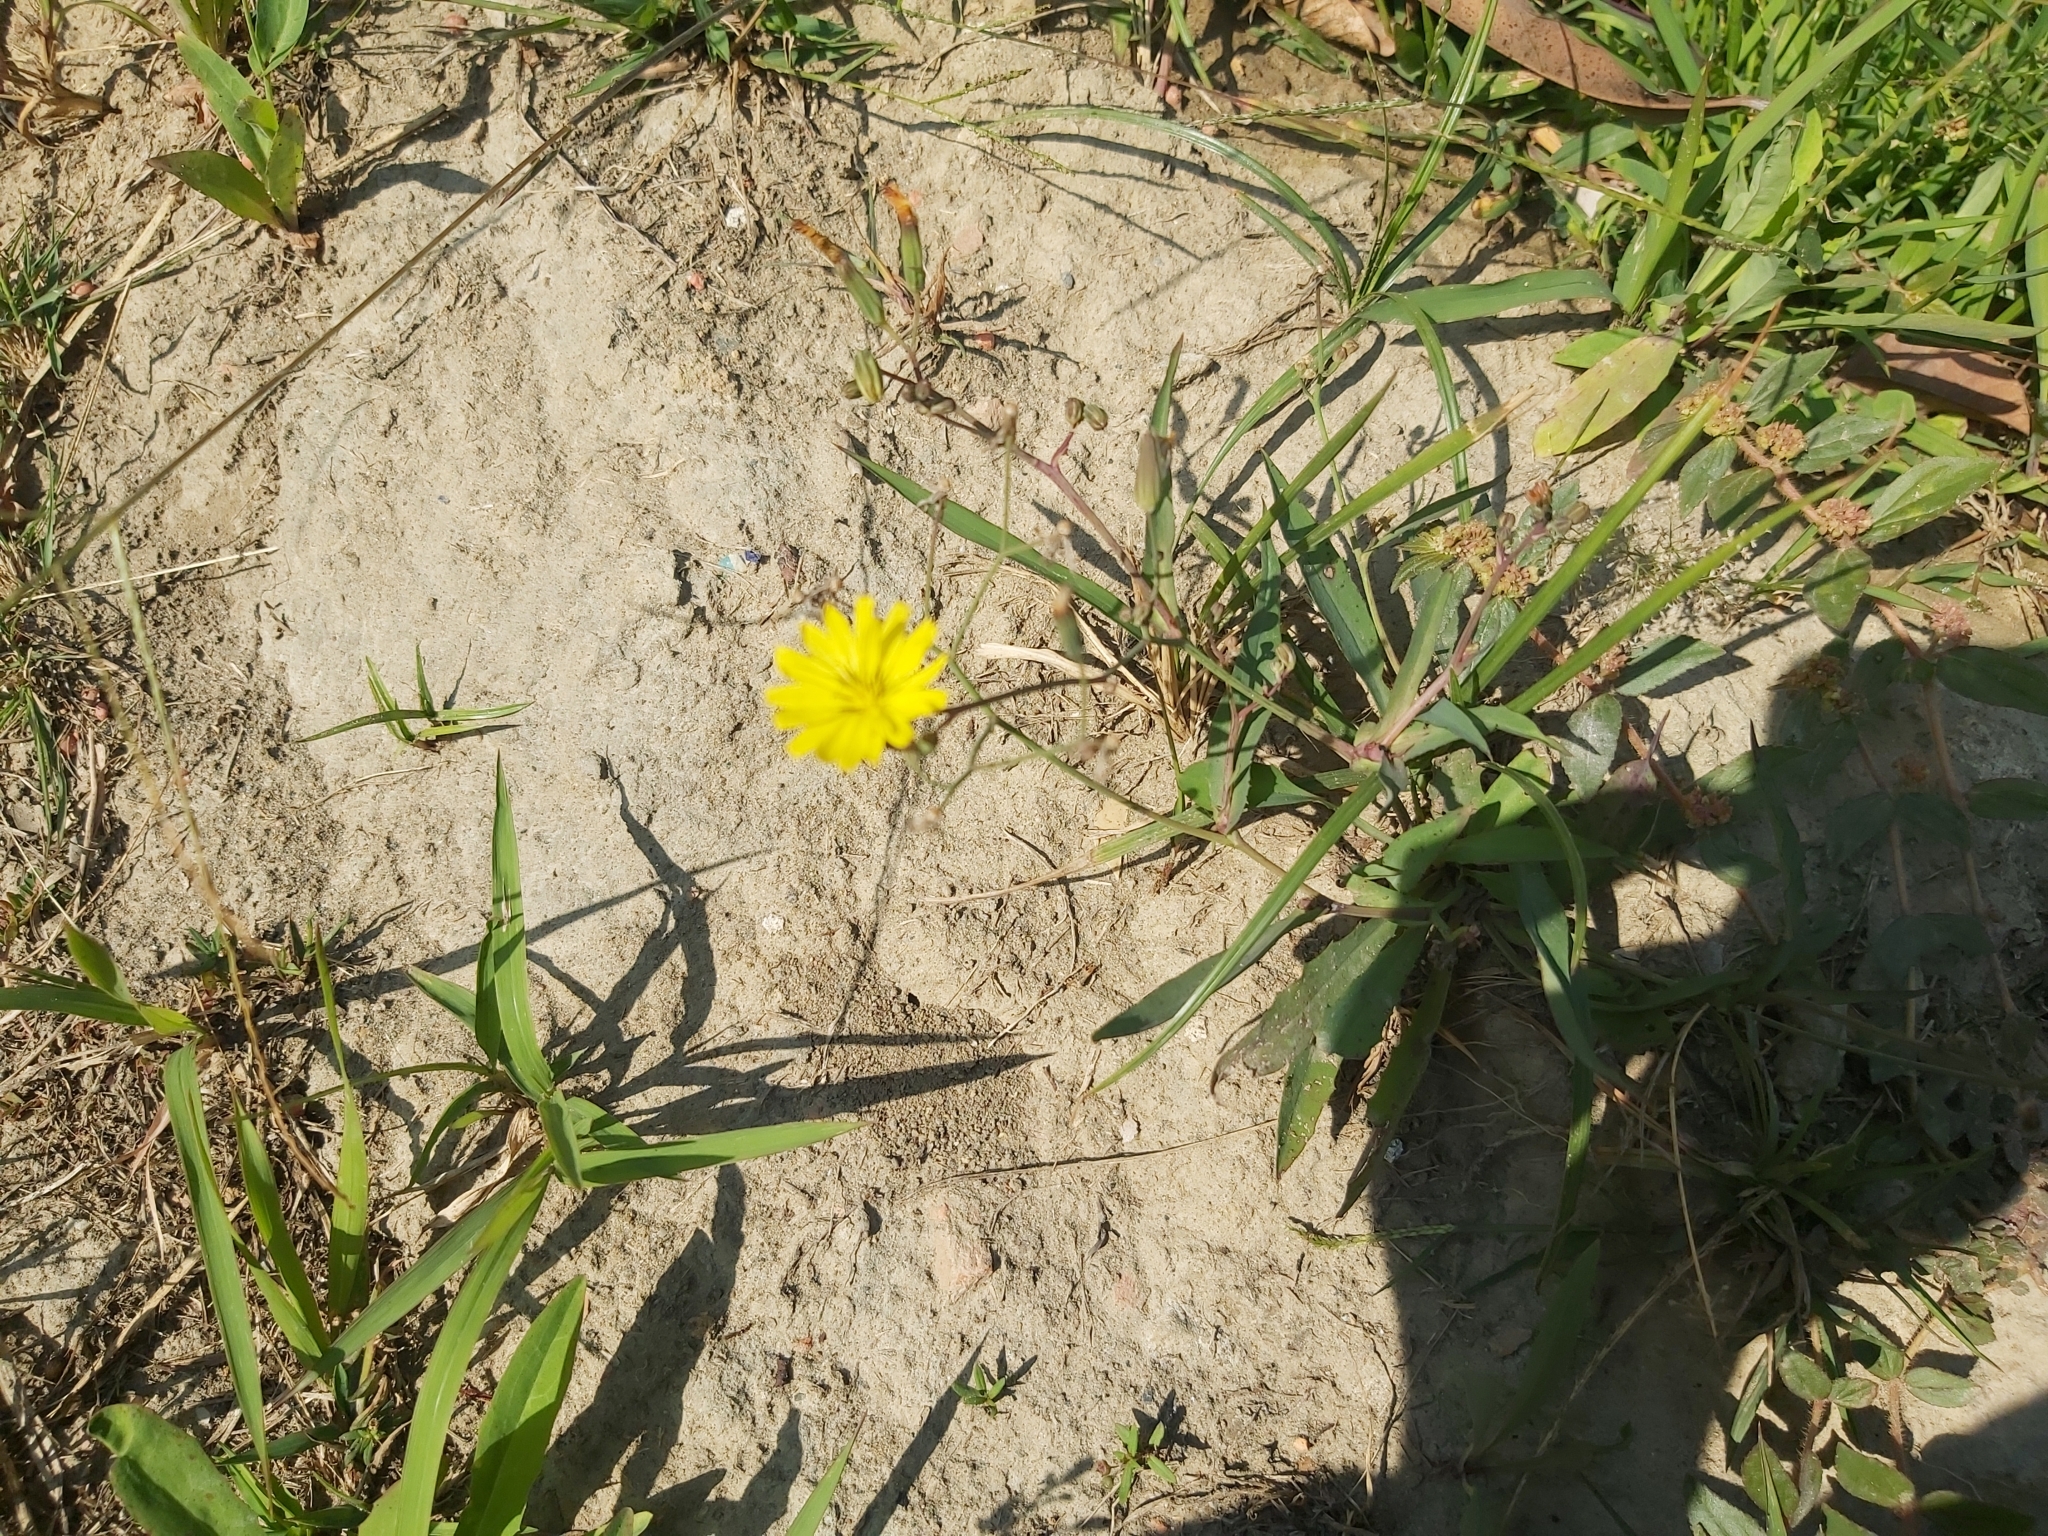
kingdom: Plantae
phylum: Tracheophyta
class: Magnoliopsida
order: Asterales
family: Asteraceae
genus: Ixeris
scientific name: Ixeris chinensis
